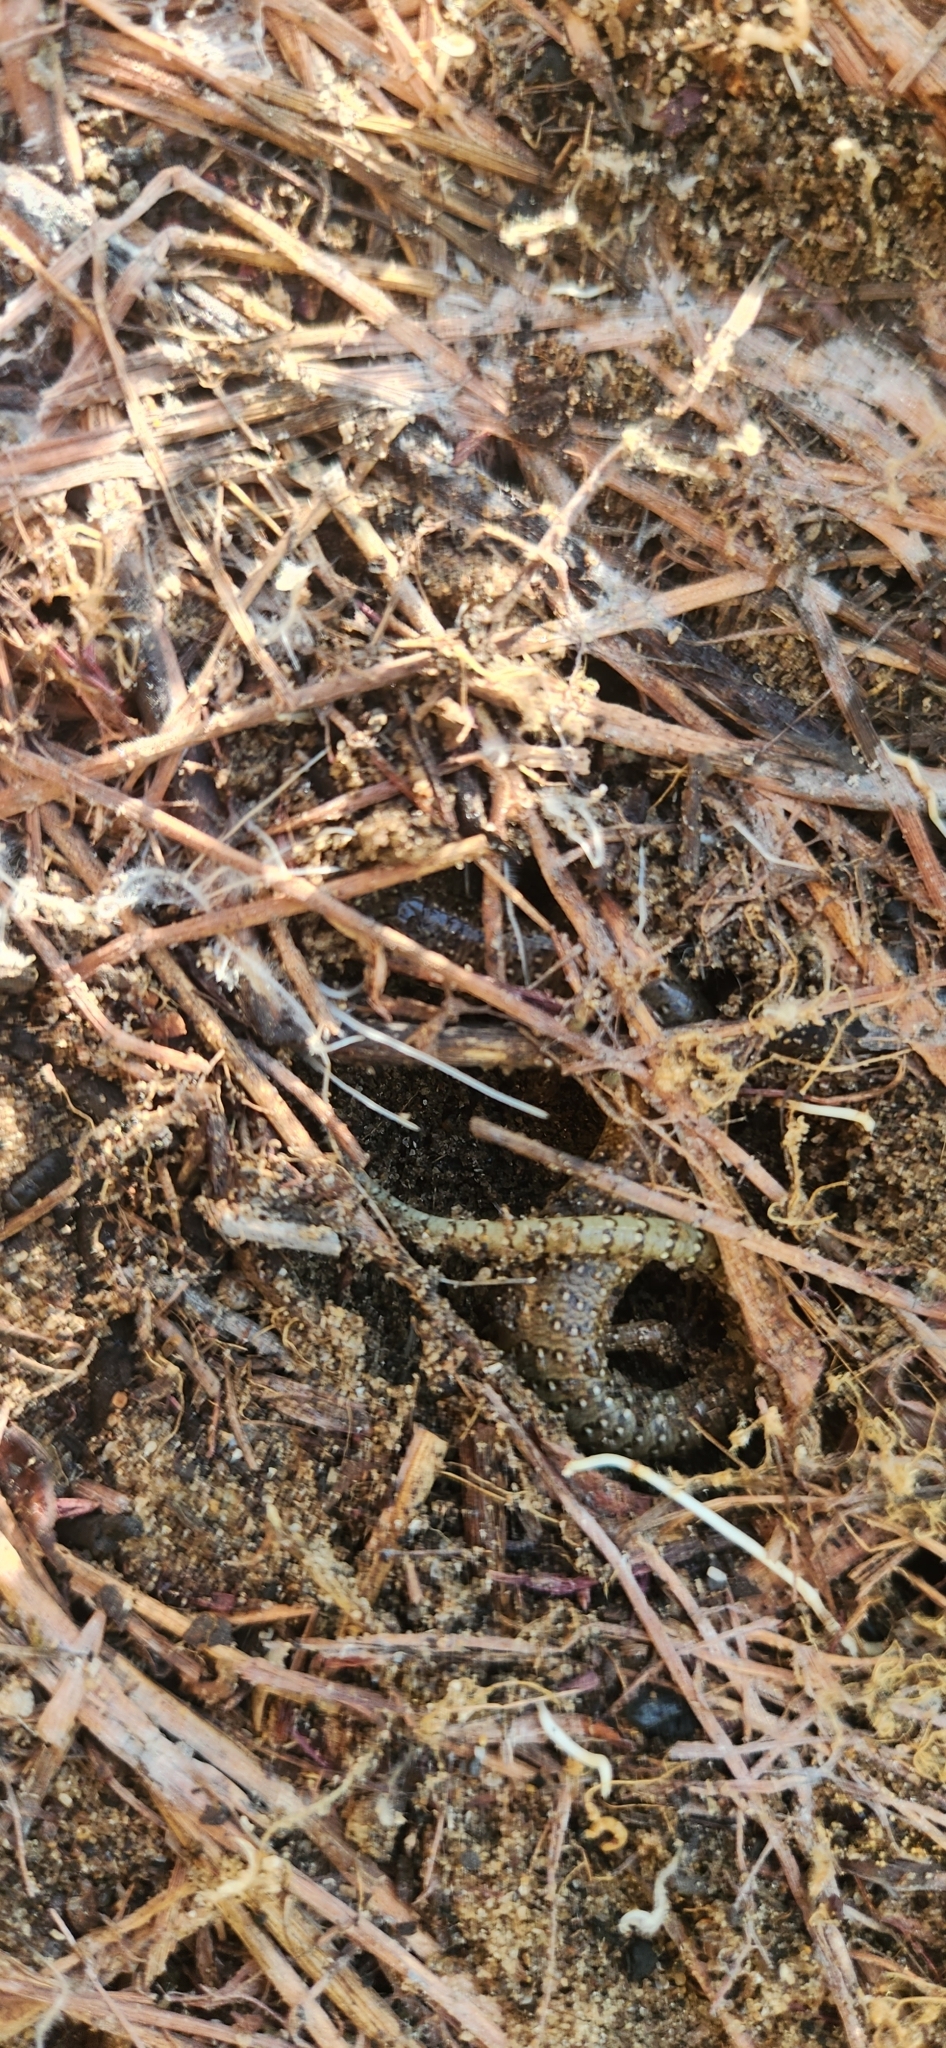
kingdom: Animalia
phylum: Chordata
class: Squamata
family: Scincidae
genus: Chalcides
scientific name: Chalcides ocellatus
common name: Ocellated skink
